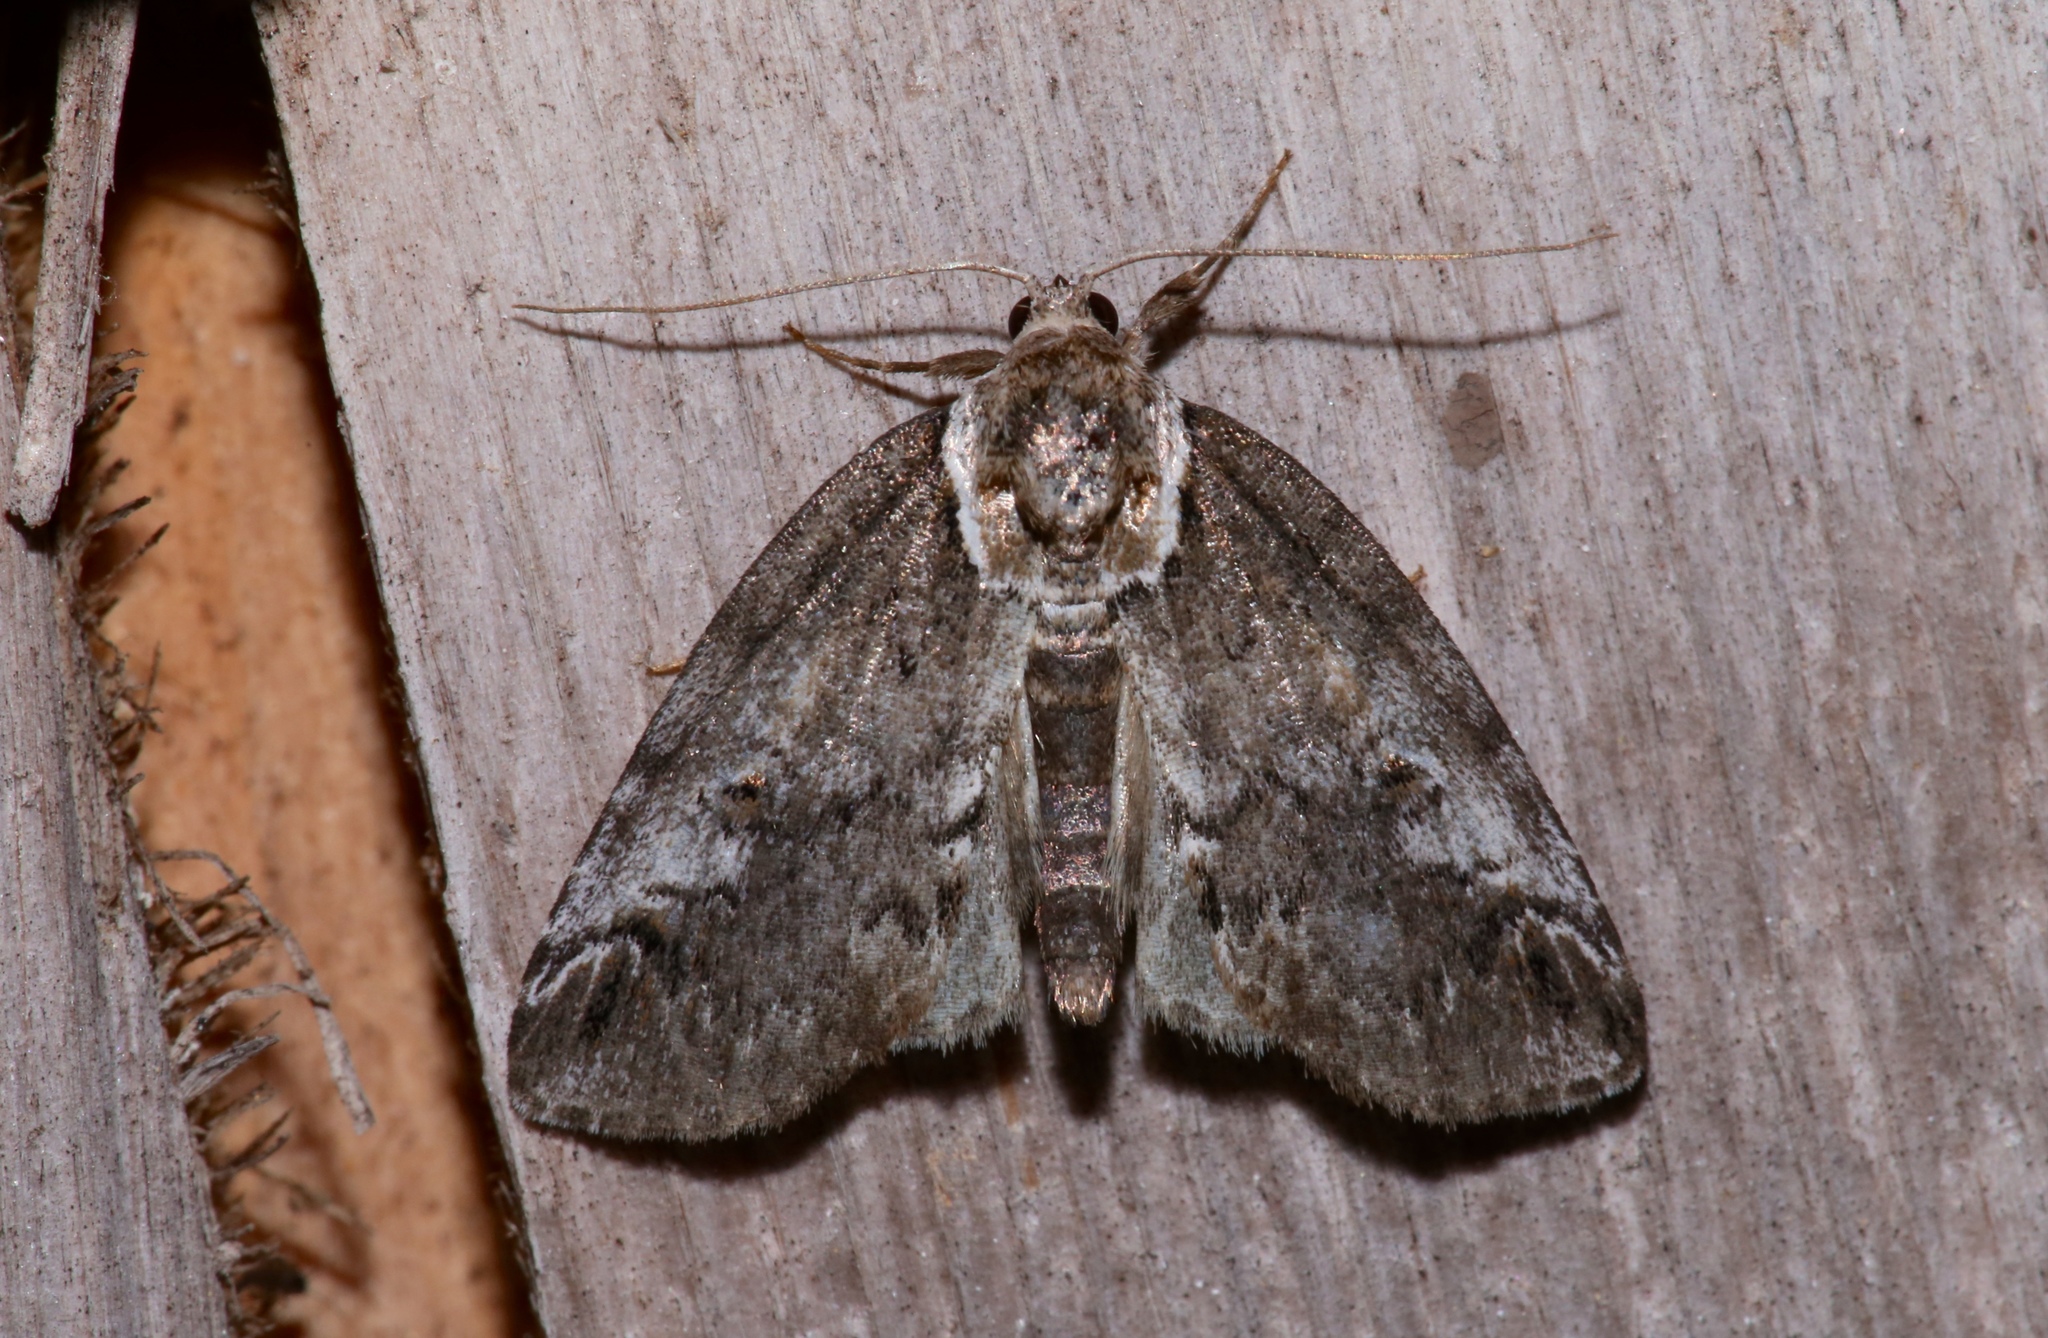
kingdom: Animalia
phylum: Arthropoda
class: Insecta
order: Lepidoptera
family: Nolidae
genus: Baileya
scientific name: Baileya ophthalmica
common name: Eyed baileya moth
